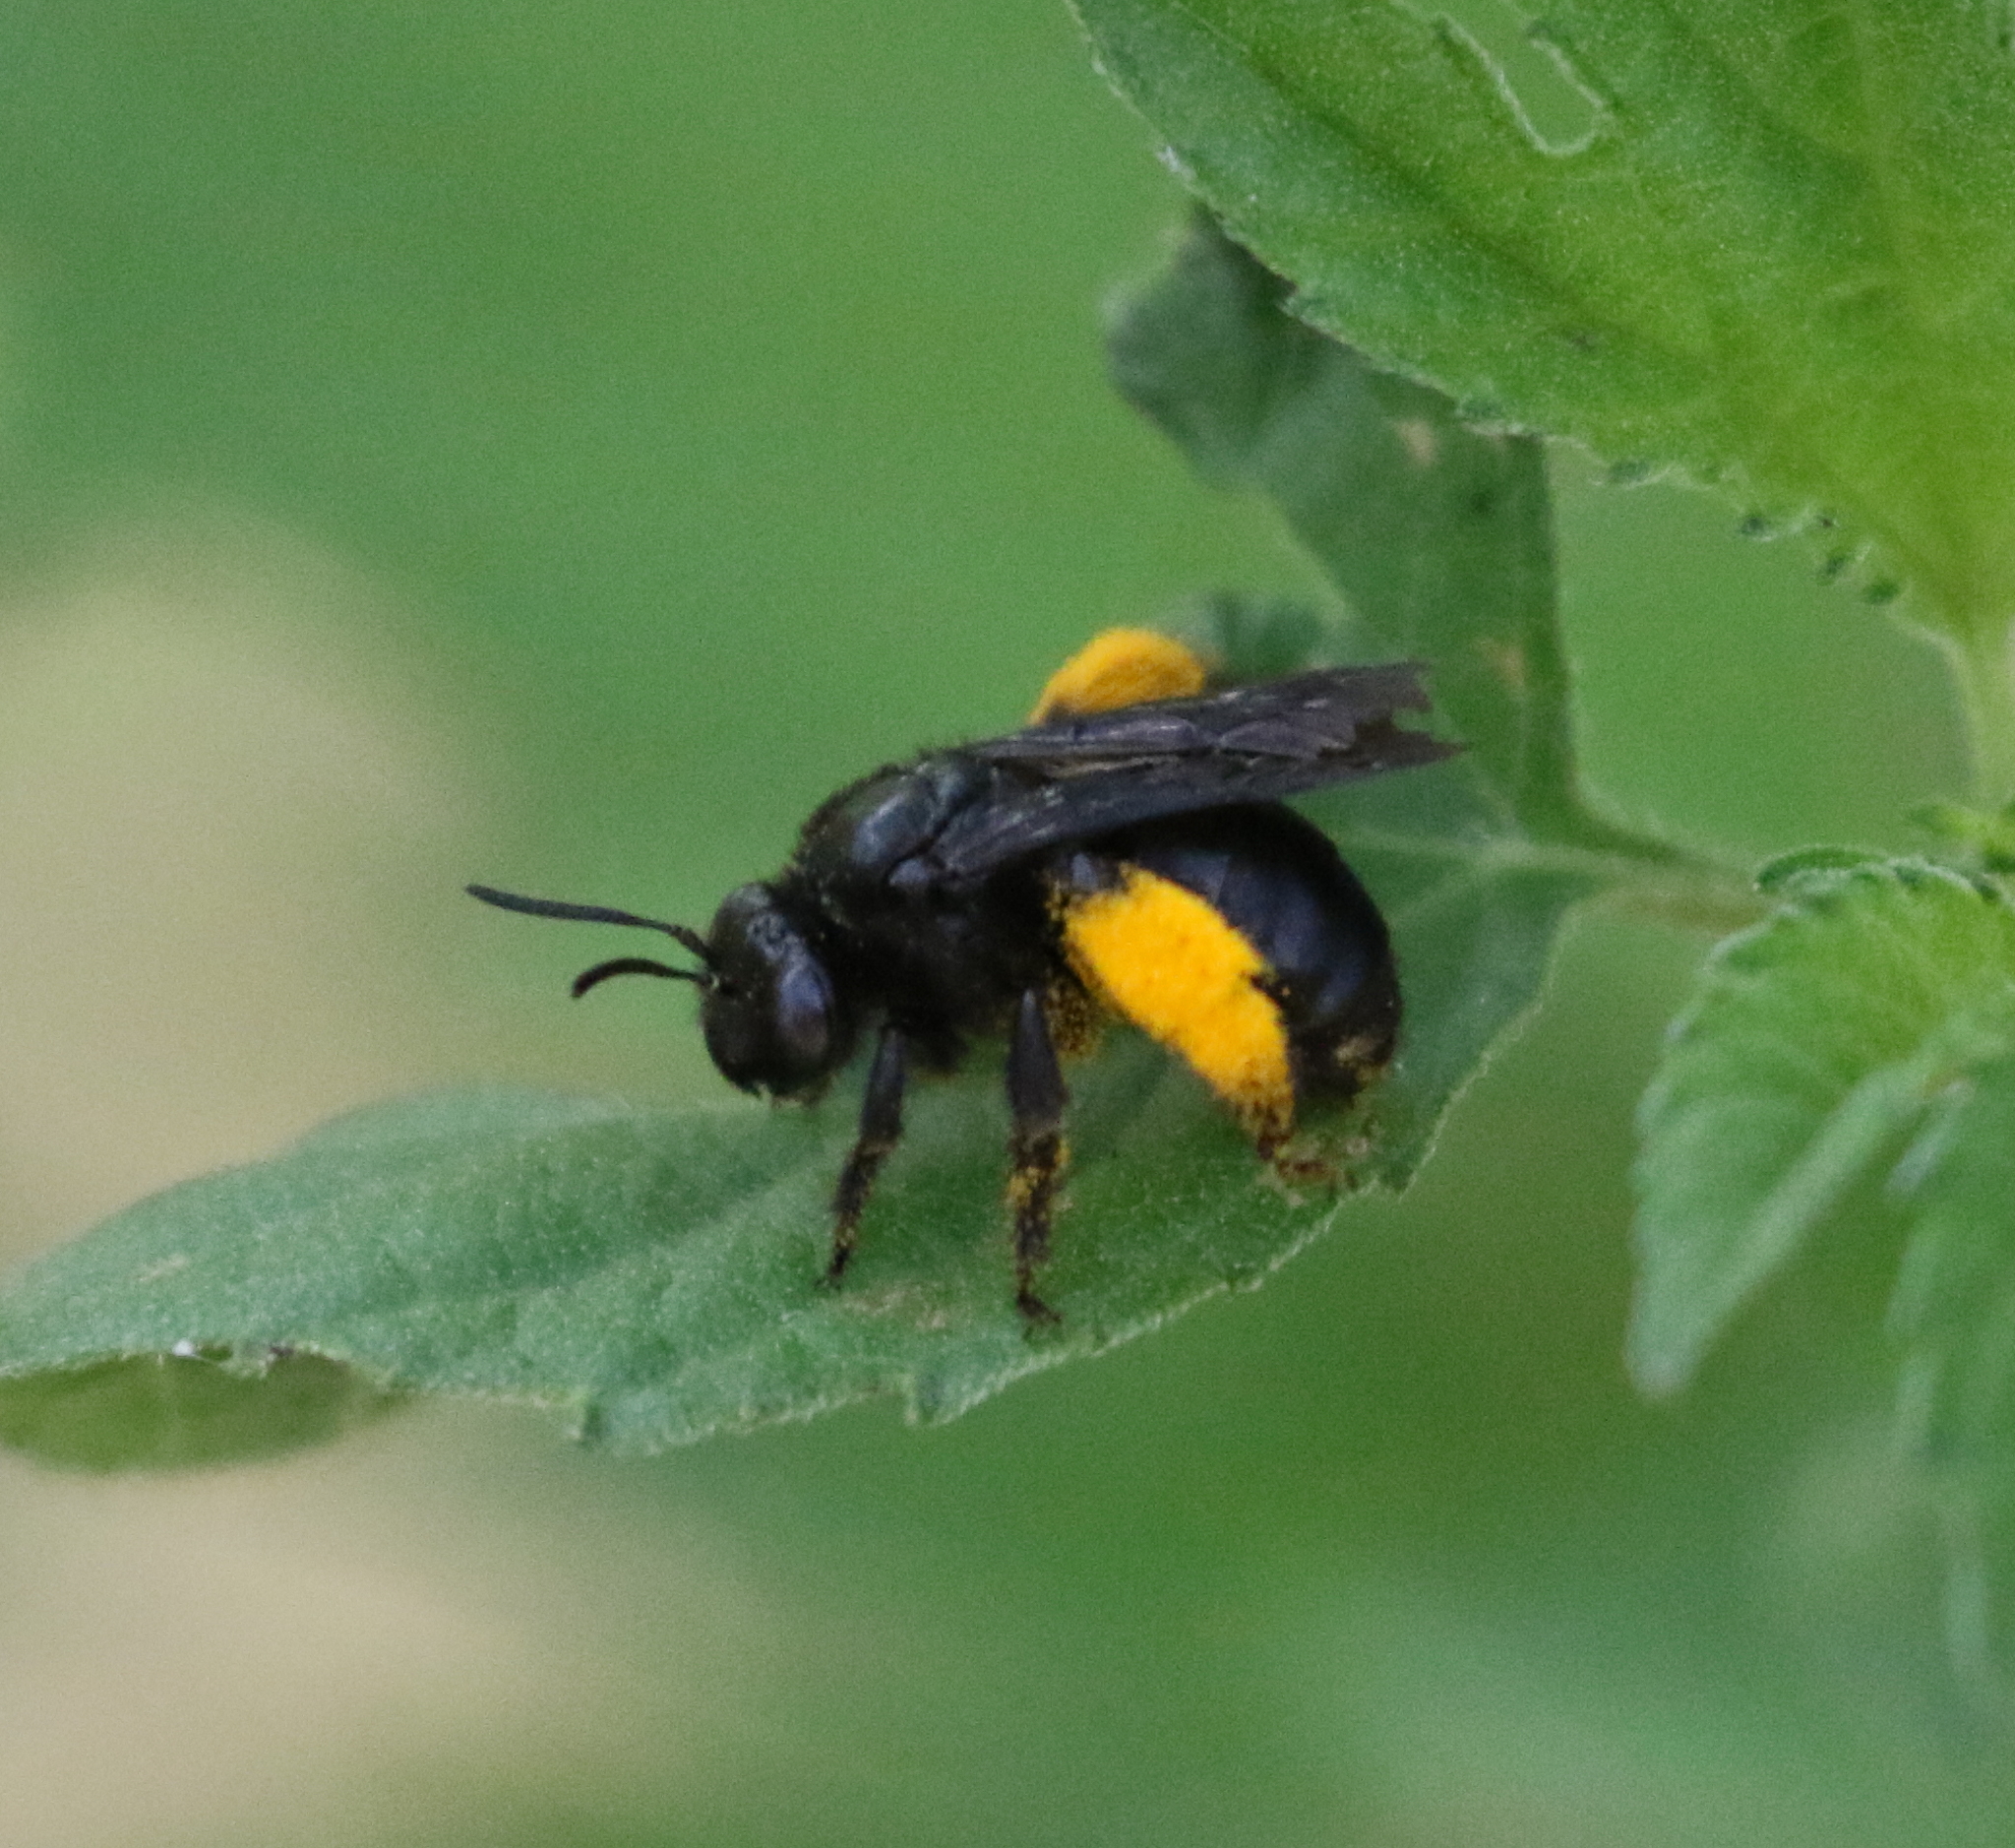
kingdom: Animalia
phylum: Arthropoda
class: Insecta
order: Hymenoptera
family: Apidae
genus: Melissodes
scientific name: Melissodes bimaculatus
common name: Two-spotted long-horned bee
